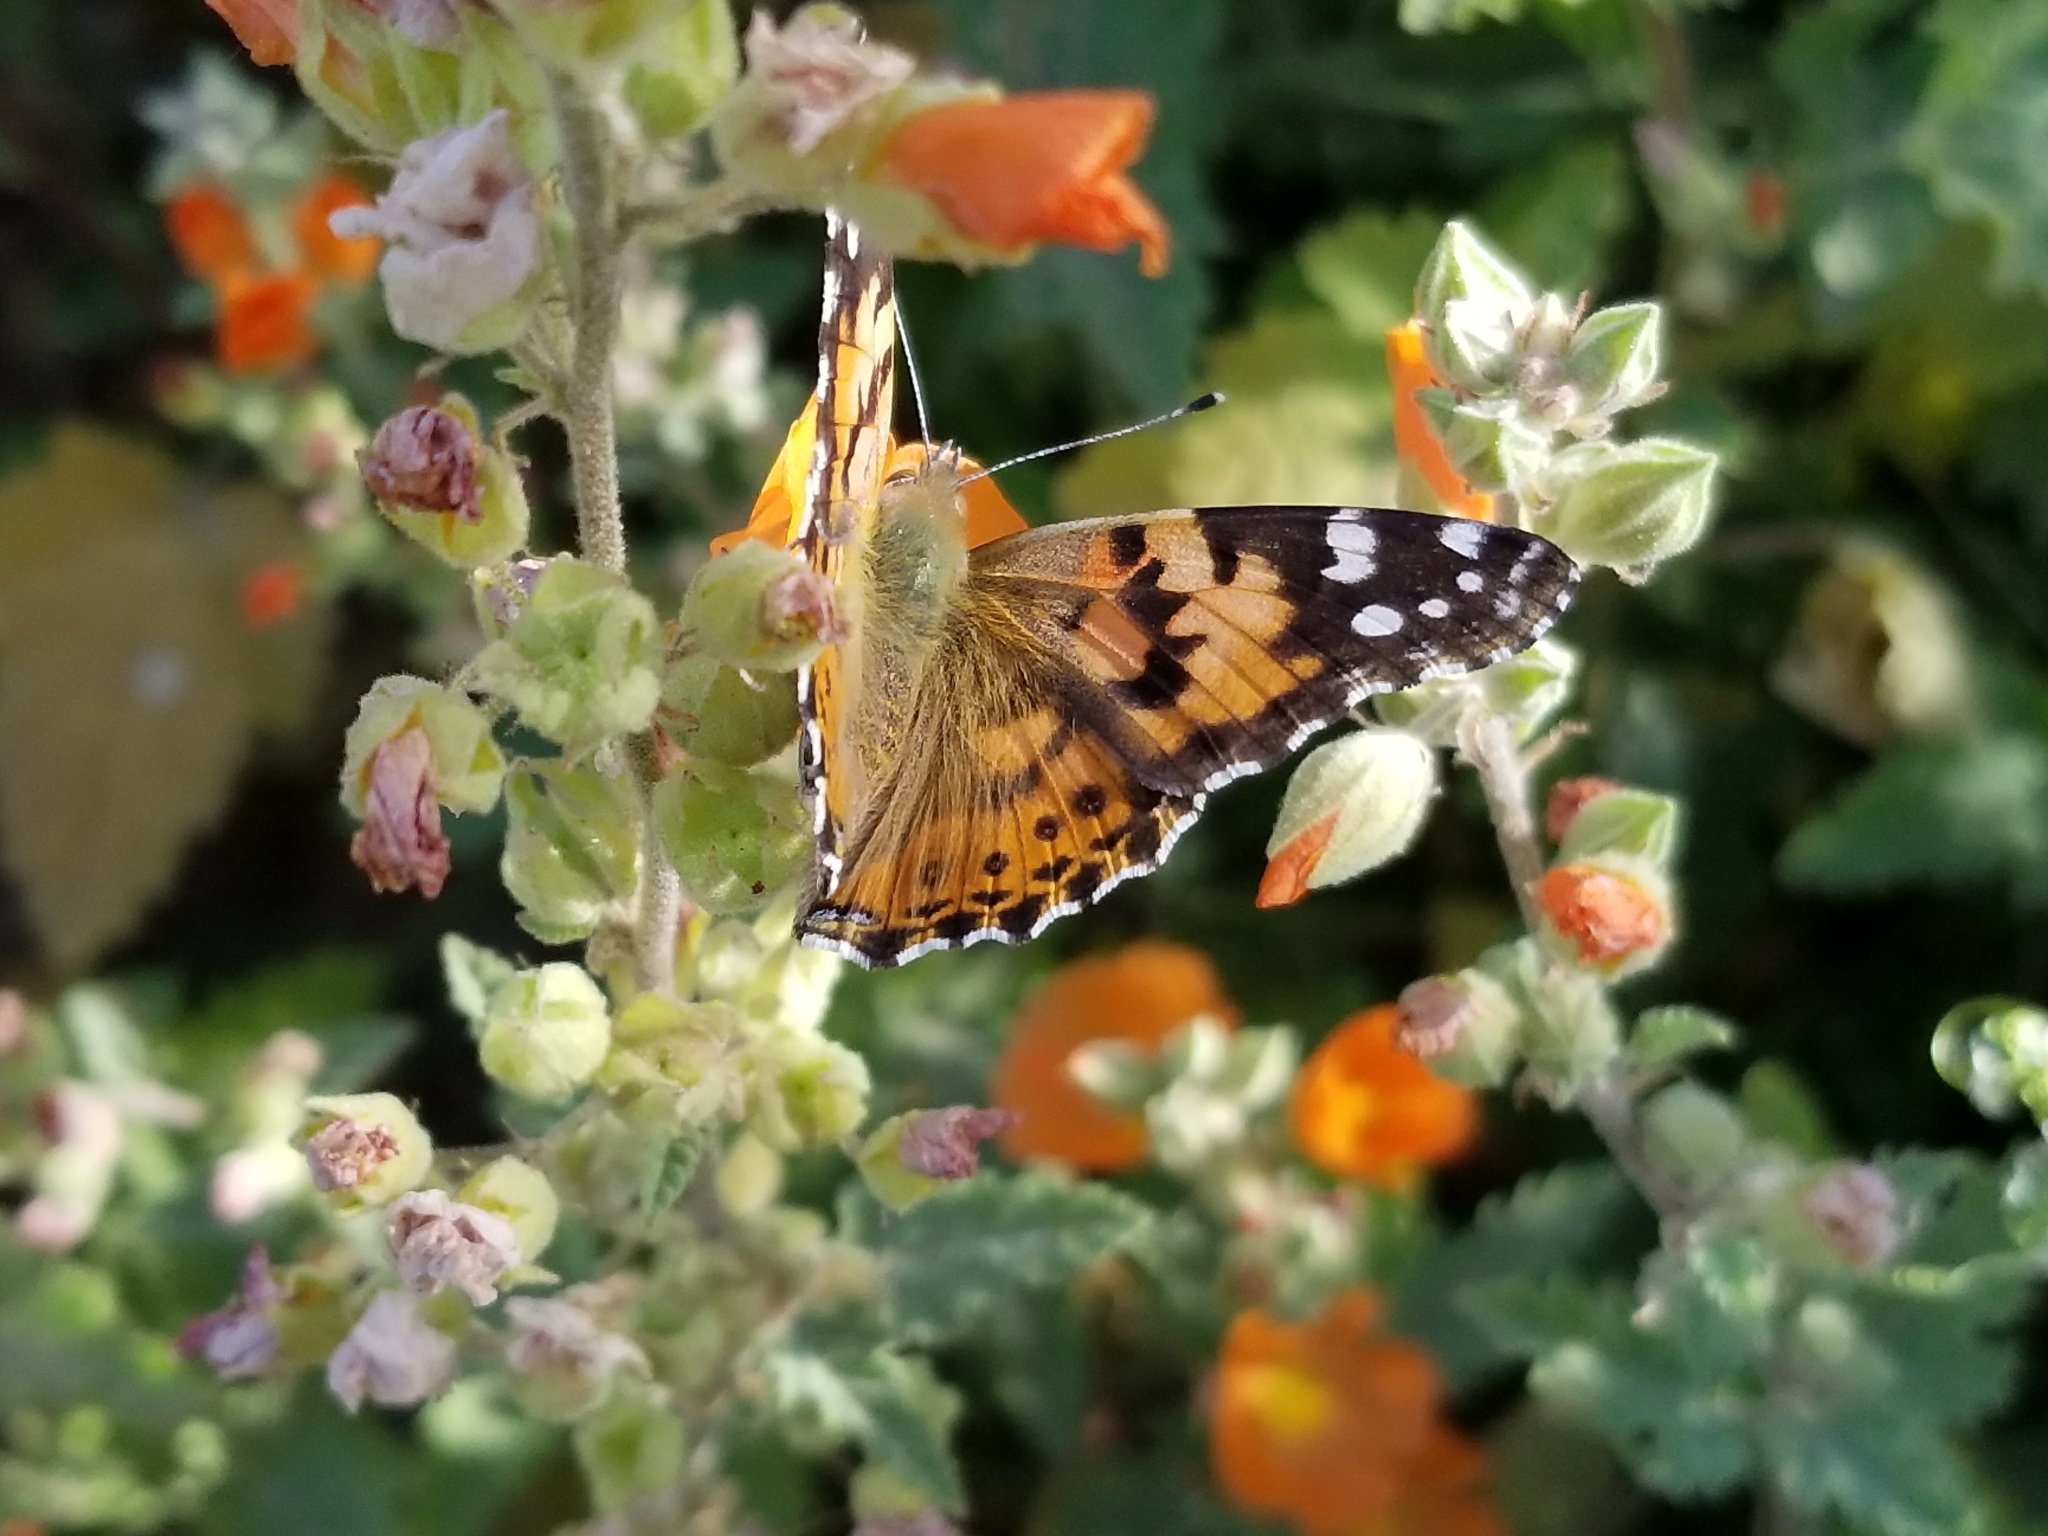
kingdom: Animalia
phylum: Arthropoda
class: Insecta
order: Lepidoptera
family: Nymphalidae
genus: Vanessa
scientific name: Vanessa cardui
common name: Painted lady
